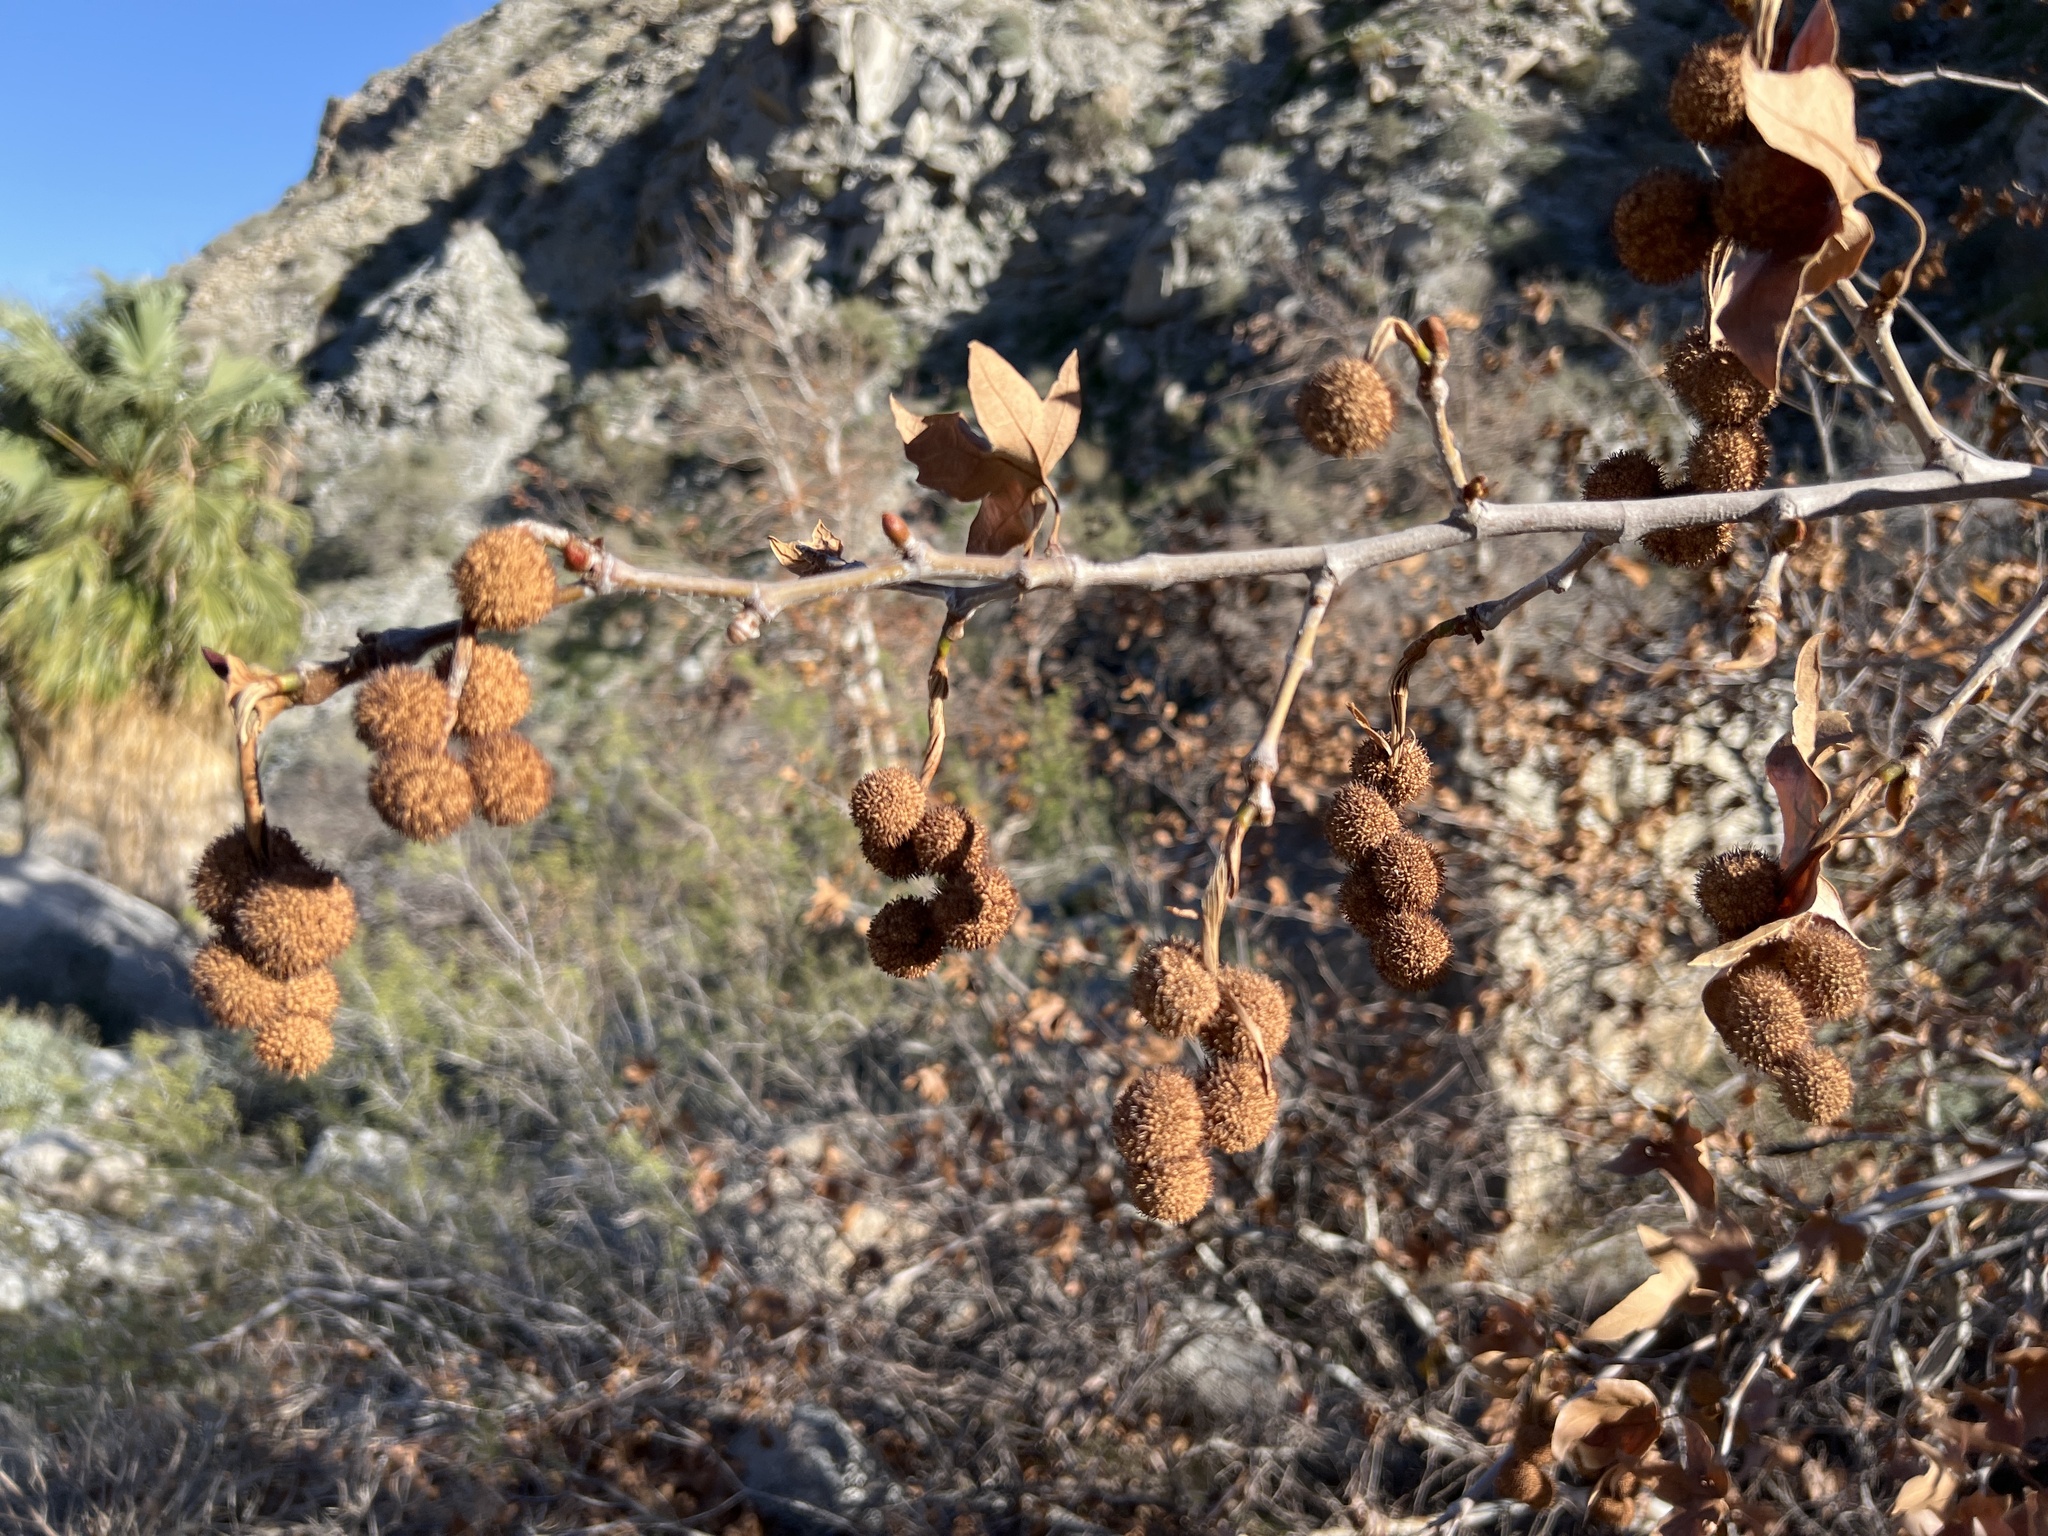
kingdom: Plantae
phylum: Tracheophyta
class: Magnoliopsida
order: Proteales
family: Platanaceae
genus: Platanus
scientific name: Platanus racemosa
